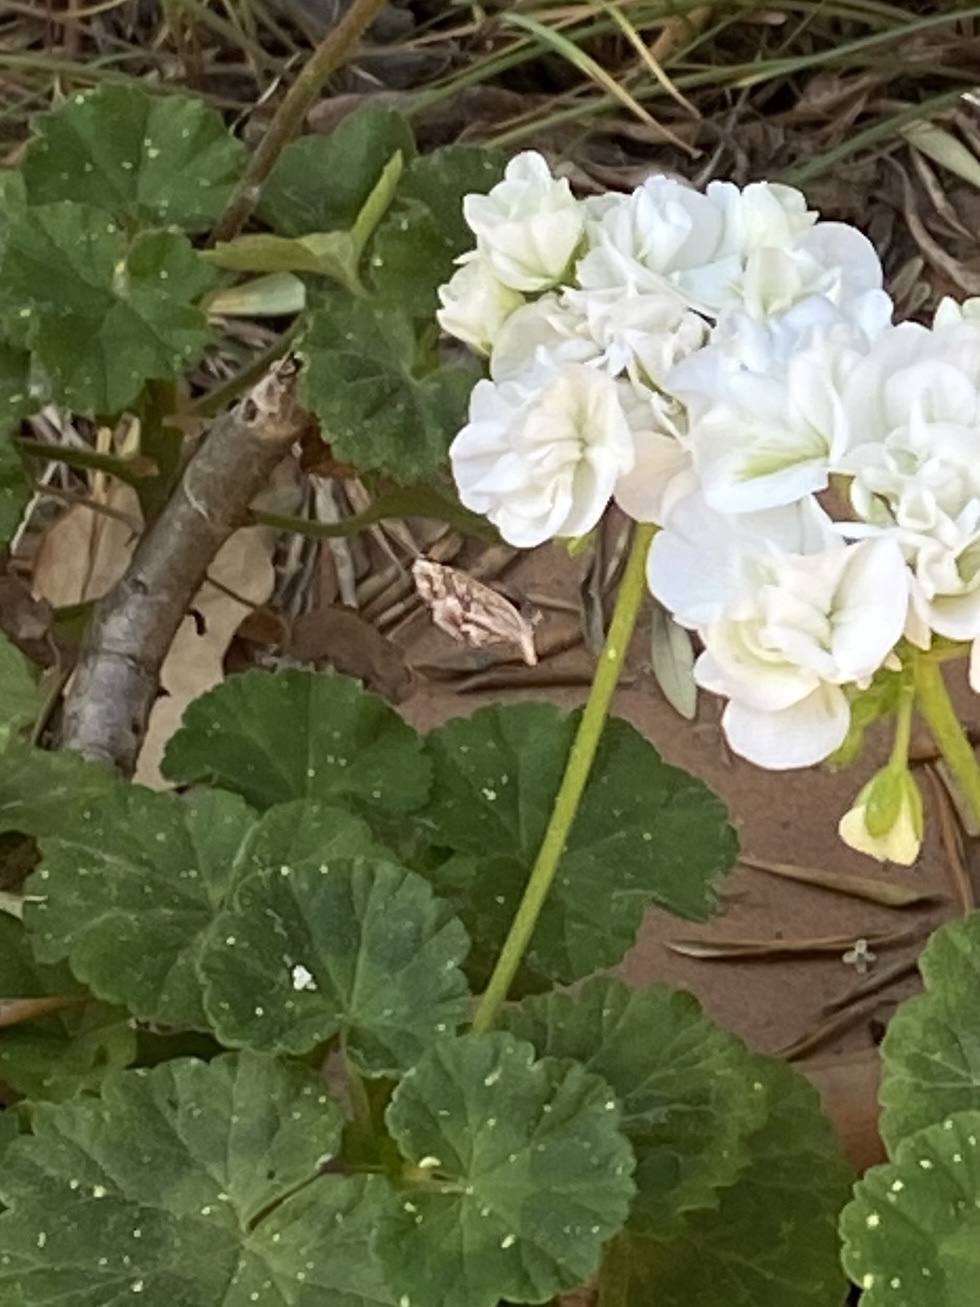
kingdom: Animalia
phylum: Arthropoda
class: Insecta
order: Lepidoptera
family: Lycaenidae
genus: Cacyreus
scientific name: Cacyreus marshalli
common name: Geranium bronze
